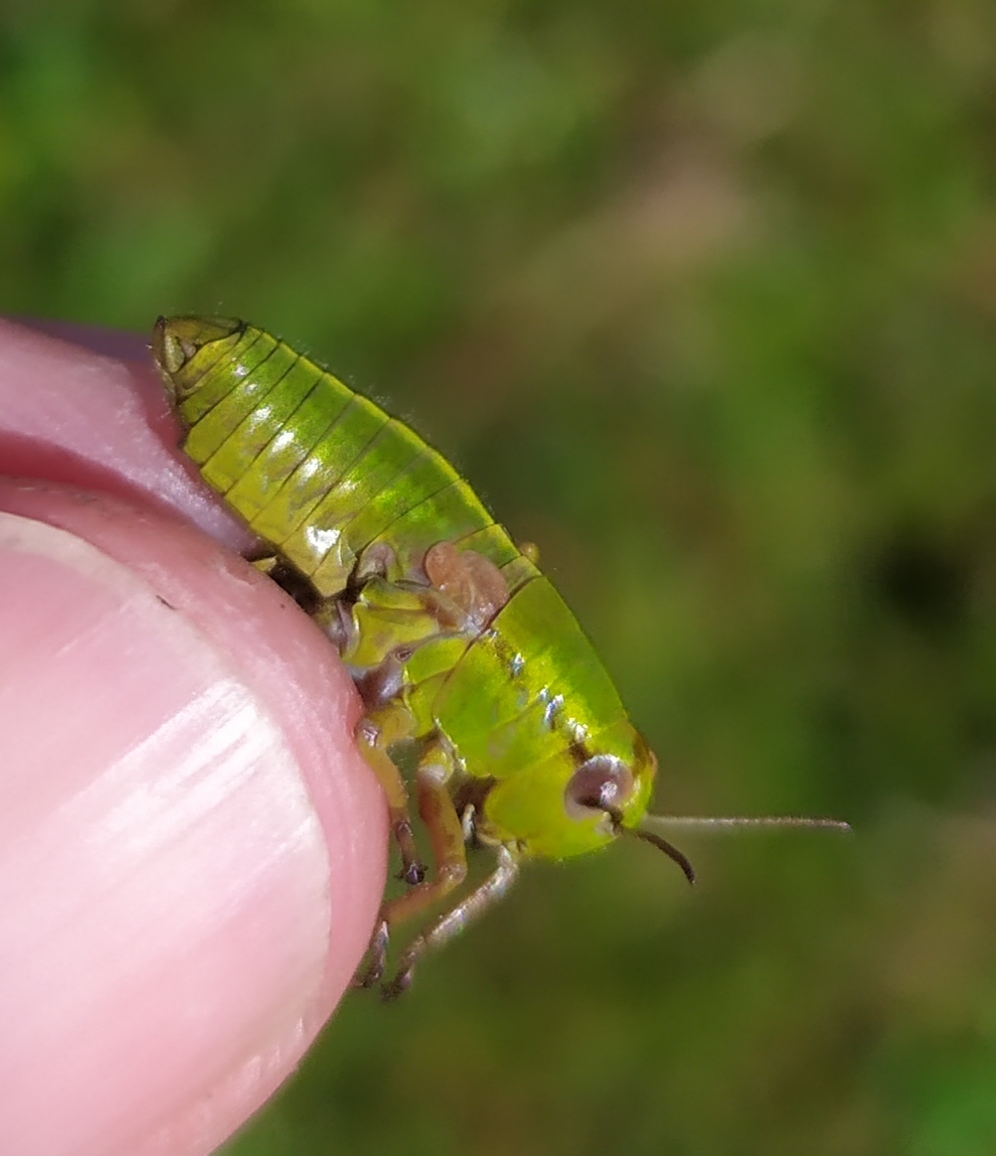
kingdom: Animalia
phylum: Arthropoda
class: Insecta
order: Orthoptera
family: Acrididae
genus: Miramella
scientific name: Miramella alpina
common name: Green mountain grasshopper
